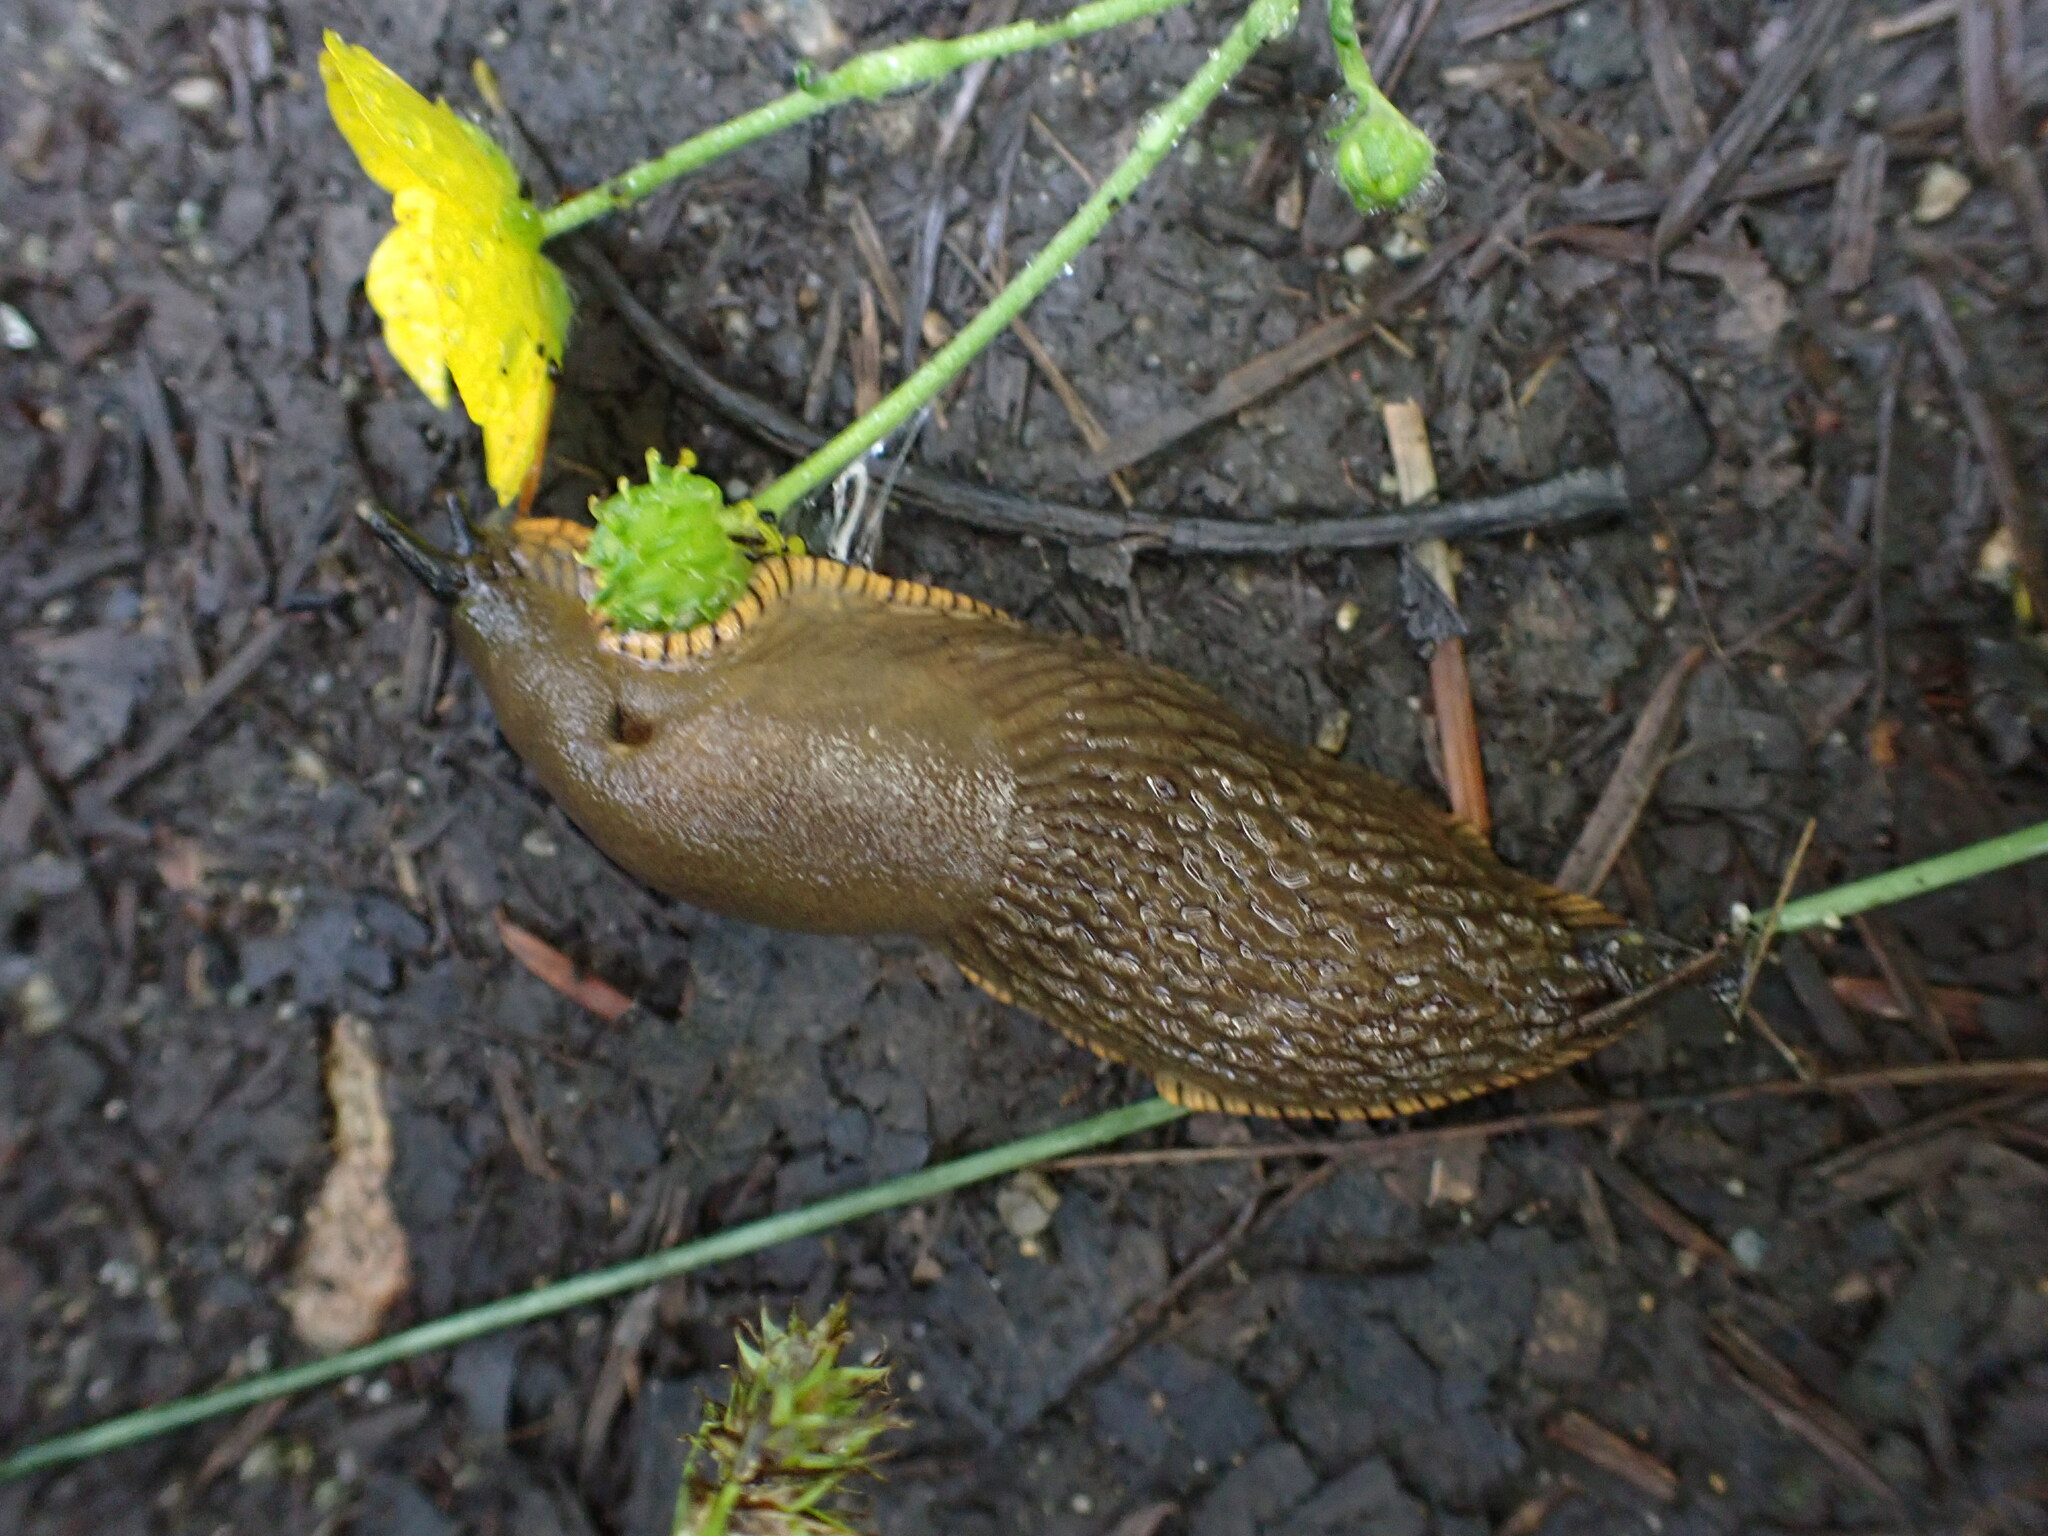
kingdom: Animalia
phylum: Mollusca
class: Gastropoda
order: Stylommatophora
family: Arionidae
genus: Arion
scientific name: Arion
